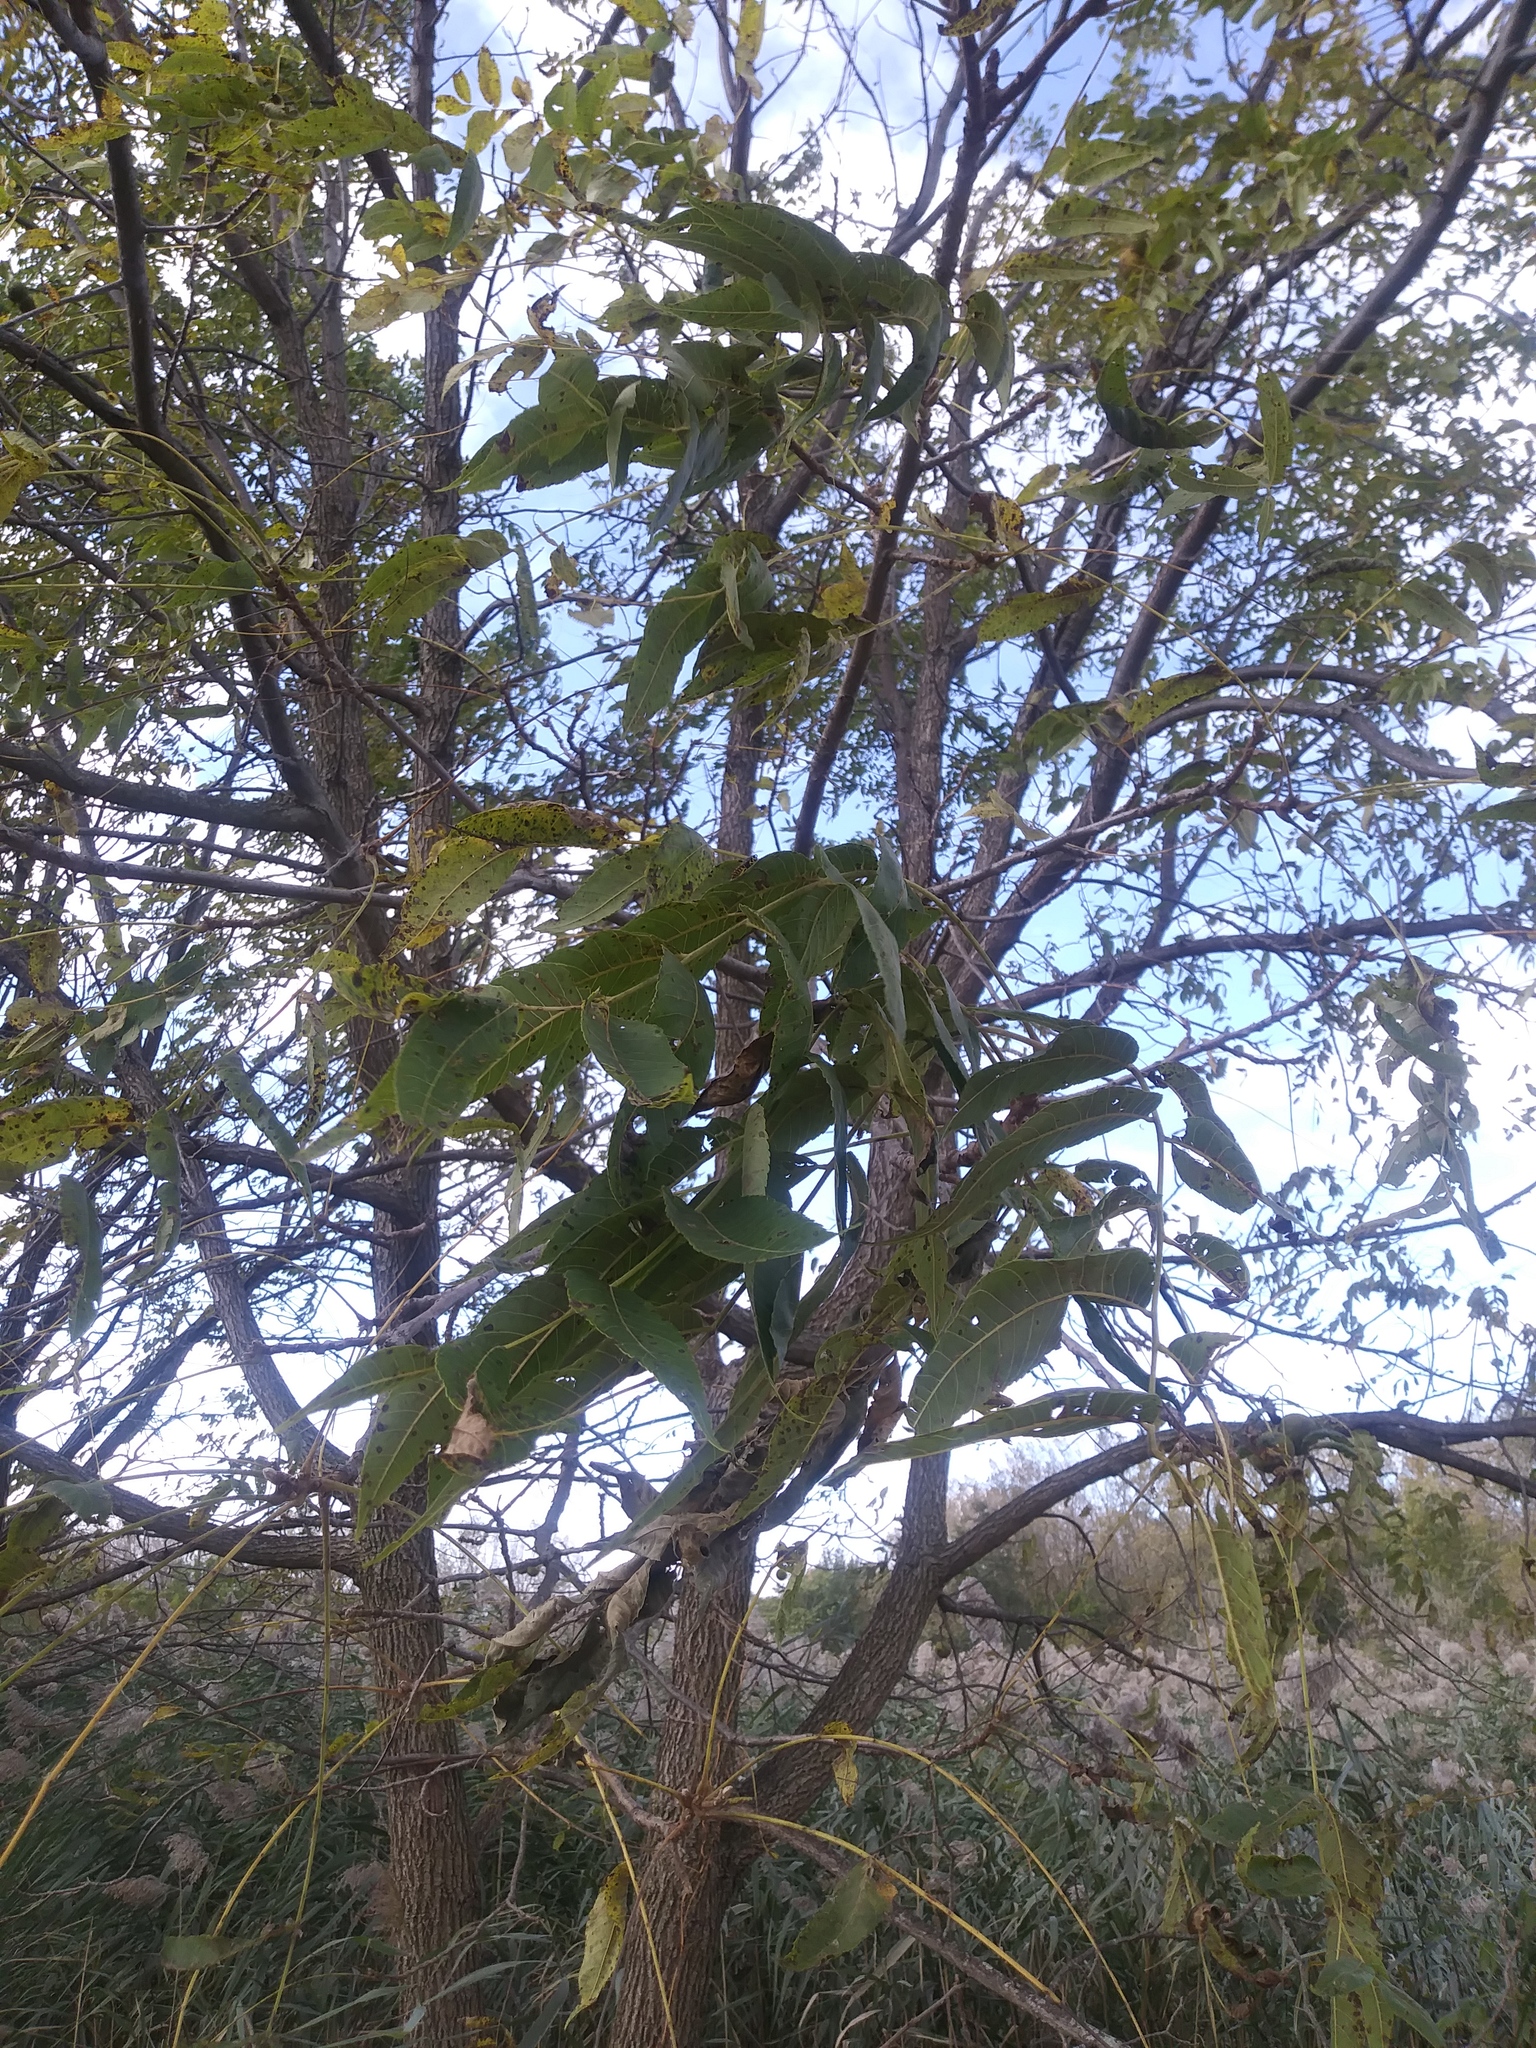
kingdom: Plantae
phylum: Tracheophyta
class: Magnoliopsida
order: Fagales
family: Juglandaceae
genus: Juglans
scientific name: Juglans nigra
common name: Black walnut
